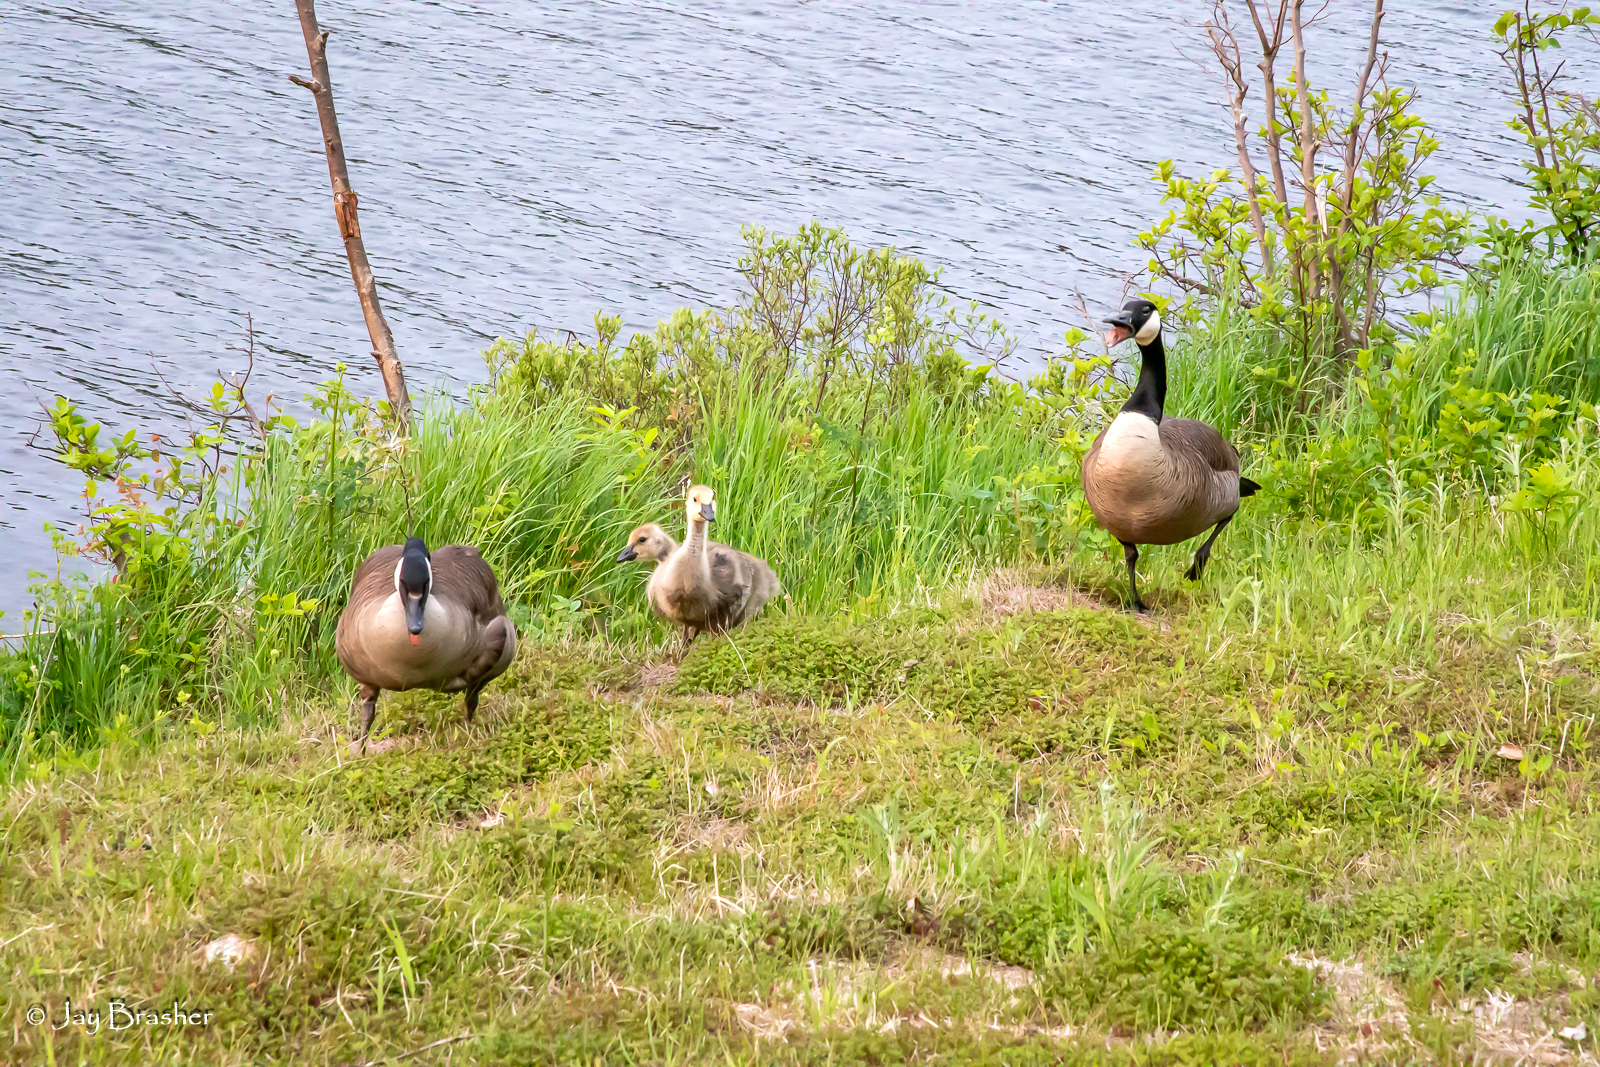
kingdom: Animalia
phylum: Chordata
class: Aves
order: Anseriformes
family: Anatidae
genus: Branta
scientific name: Branta canadensis
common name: Canada goose
